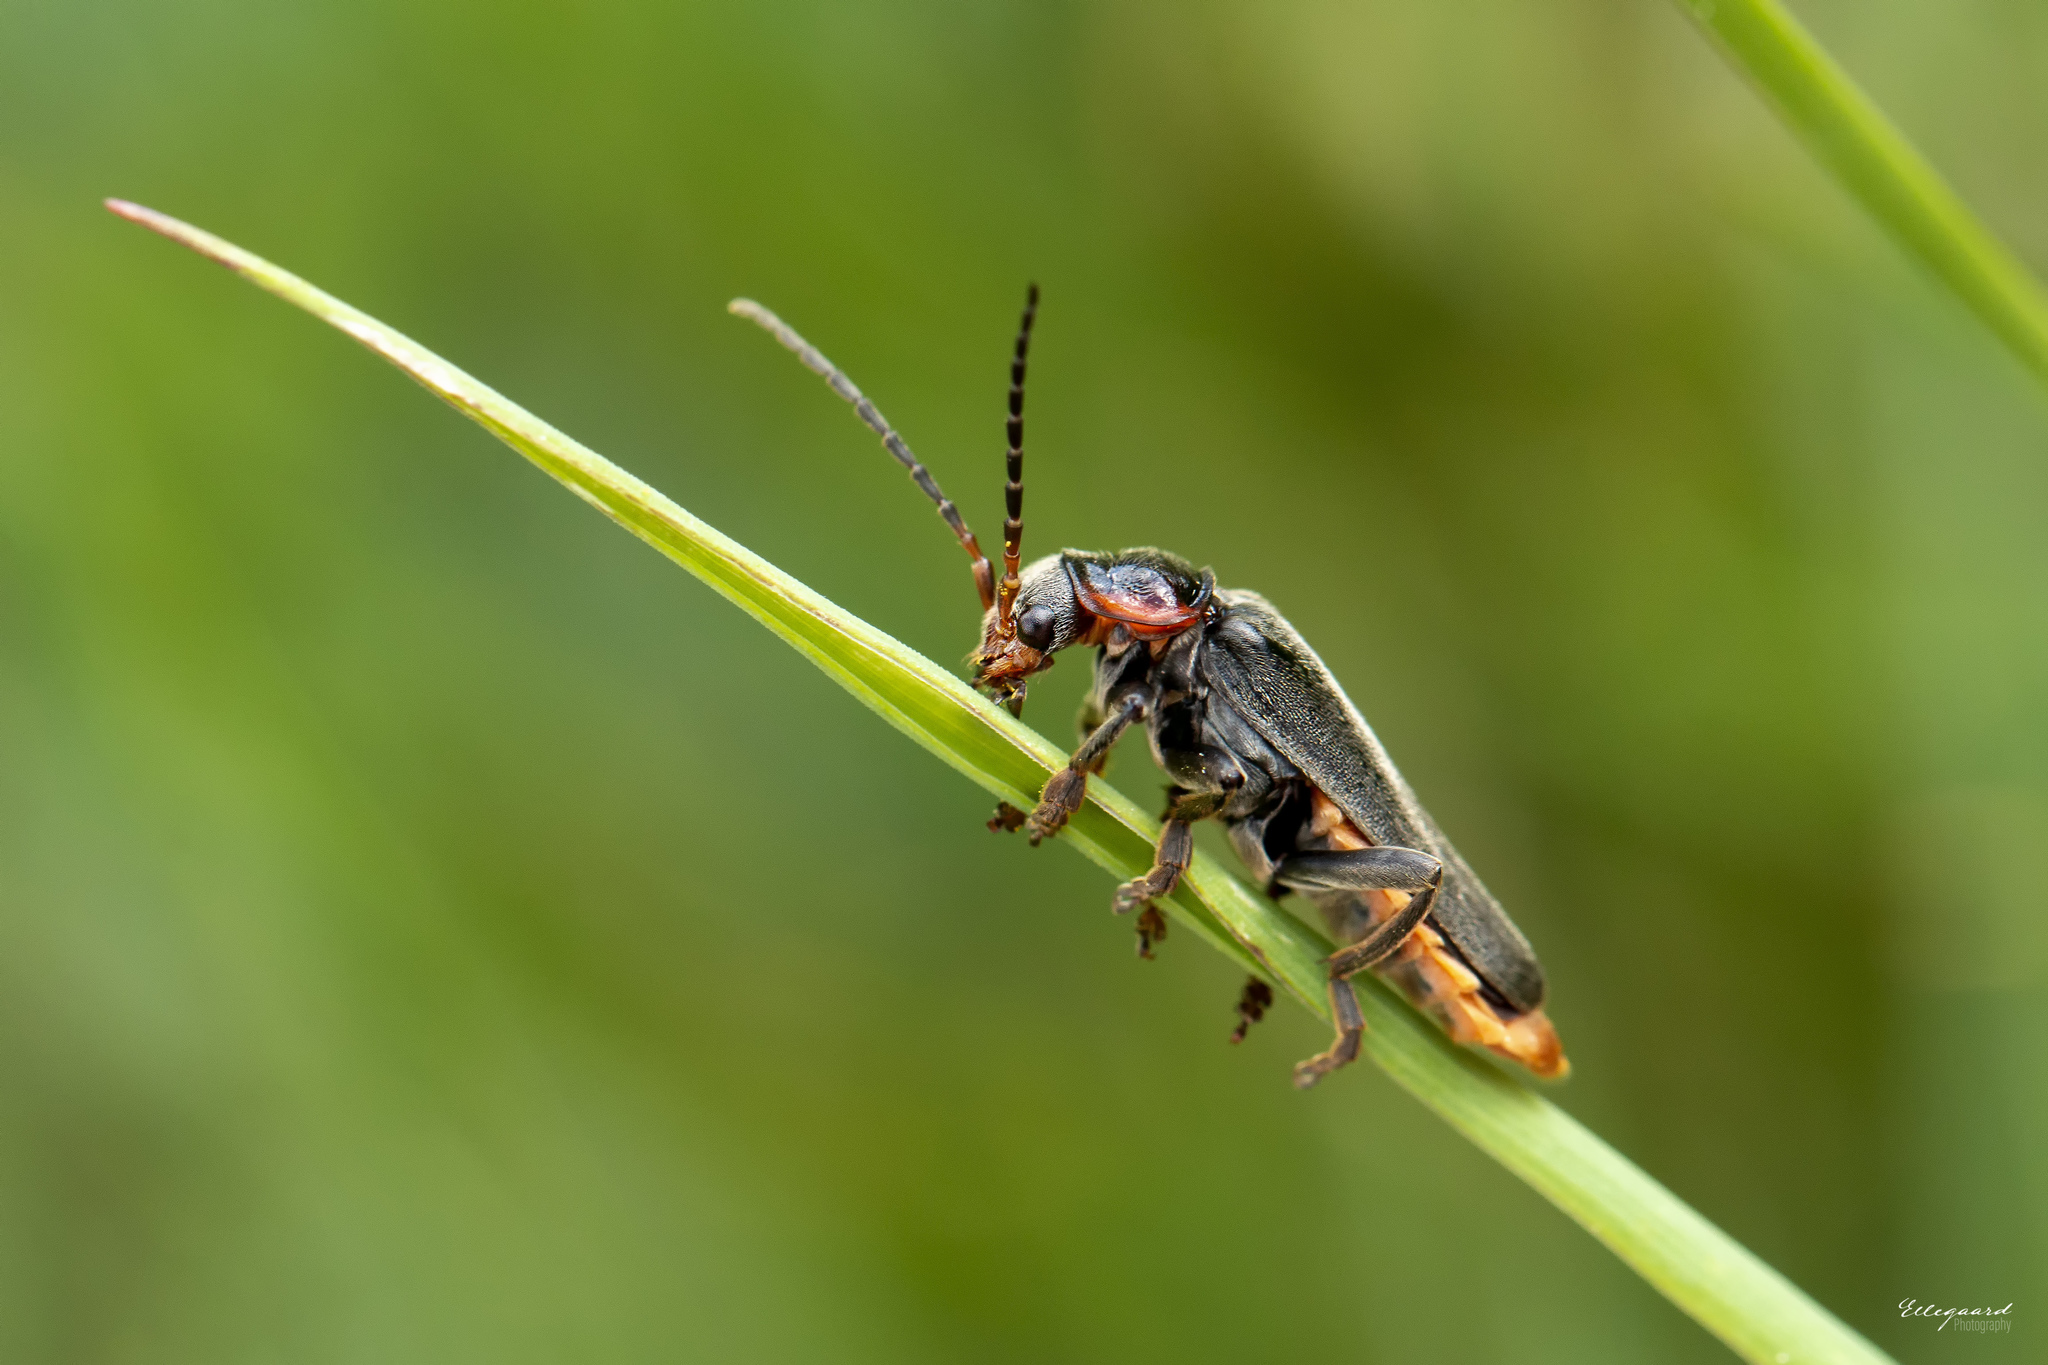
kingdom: Animalia
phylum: Arthropoda
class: Insecta
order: Coleoptera
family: Cantharidae
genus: Cantharis
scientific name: Cantharis fusca
